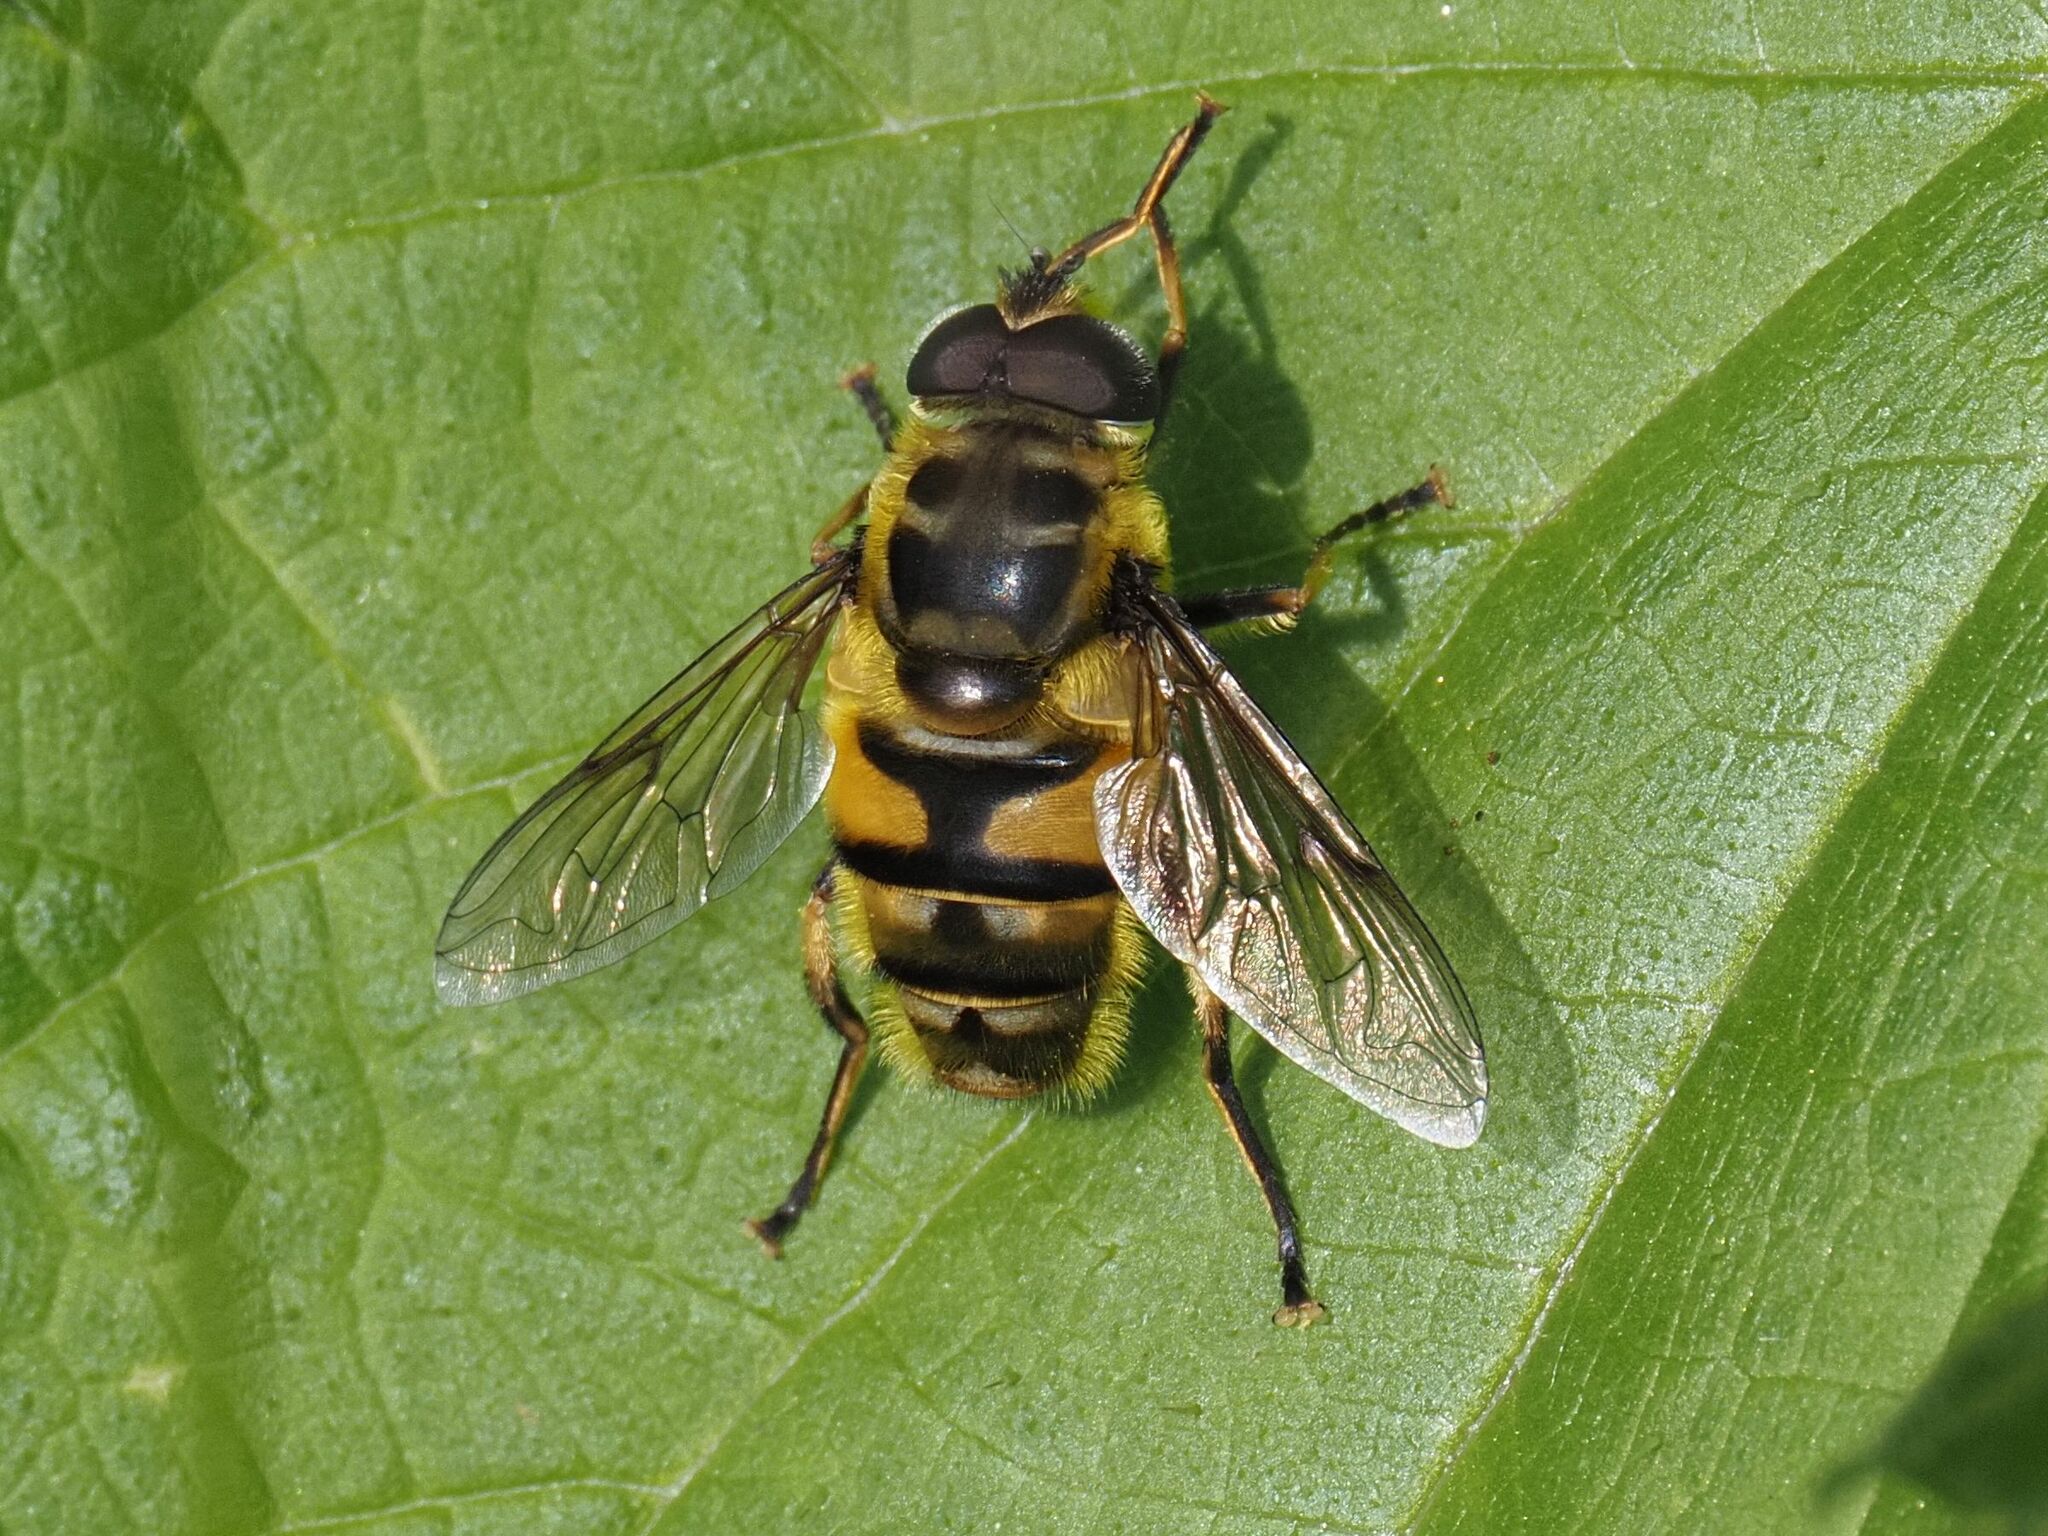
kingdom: Animalia
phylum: Arthropoda
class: Insecta
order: Diptera
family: Syrphidae
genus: Myathropa
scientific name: Myathropa florea
